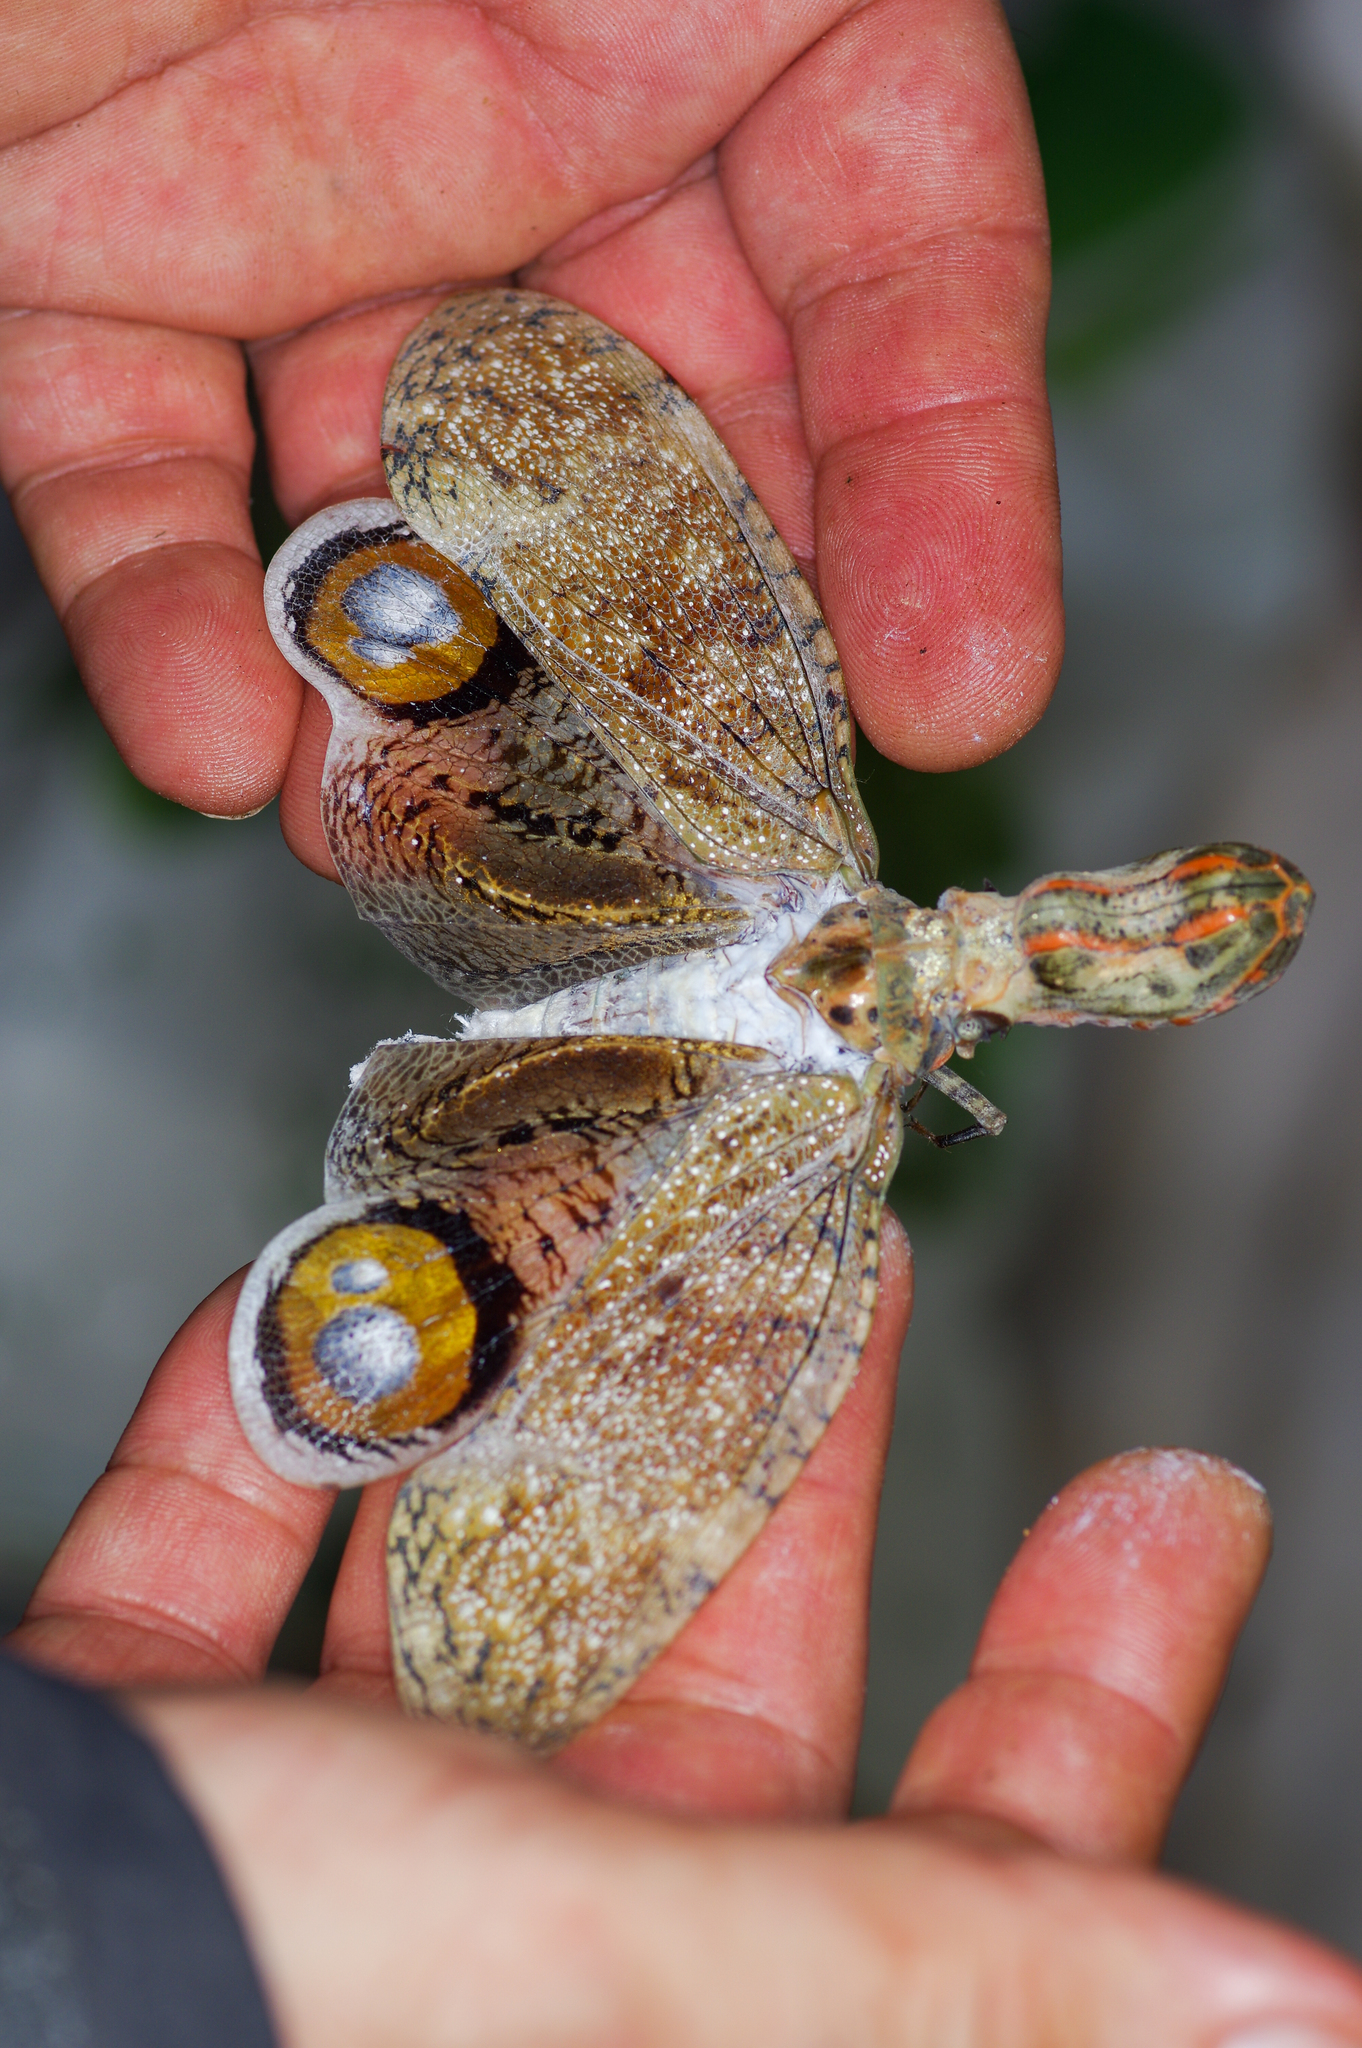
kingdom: Animalia
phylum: Arthropoda
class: Insecta
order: Hemiptera
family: Fulgoridae
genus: Fulgora
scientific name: Fulgora laternaria
